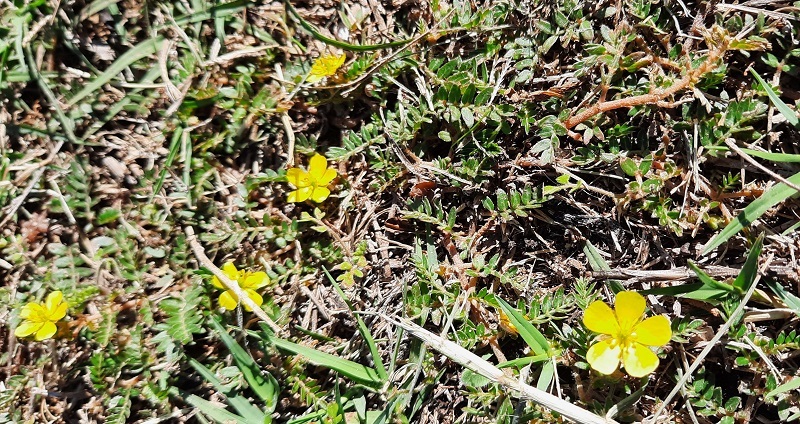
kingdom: Plantae
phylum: Tracheophyta
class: Magnoliopsida
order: Zygophyllales
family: Zygophyllaceae
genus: Tribulus
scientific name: Tribulus terrestris
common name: Puncturevine
